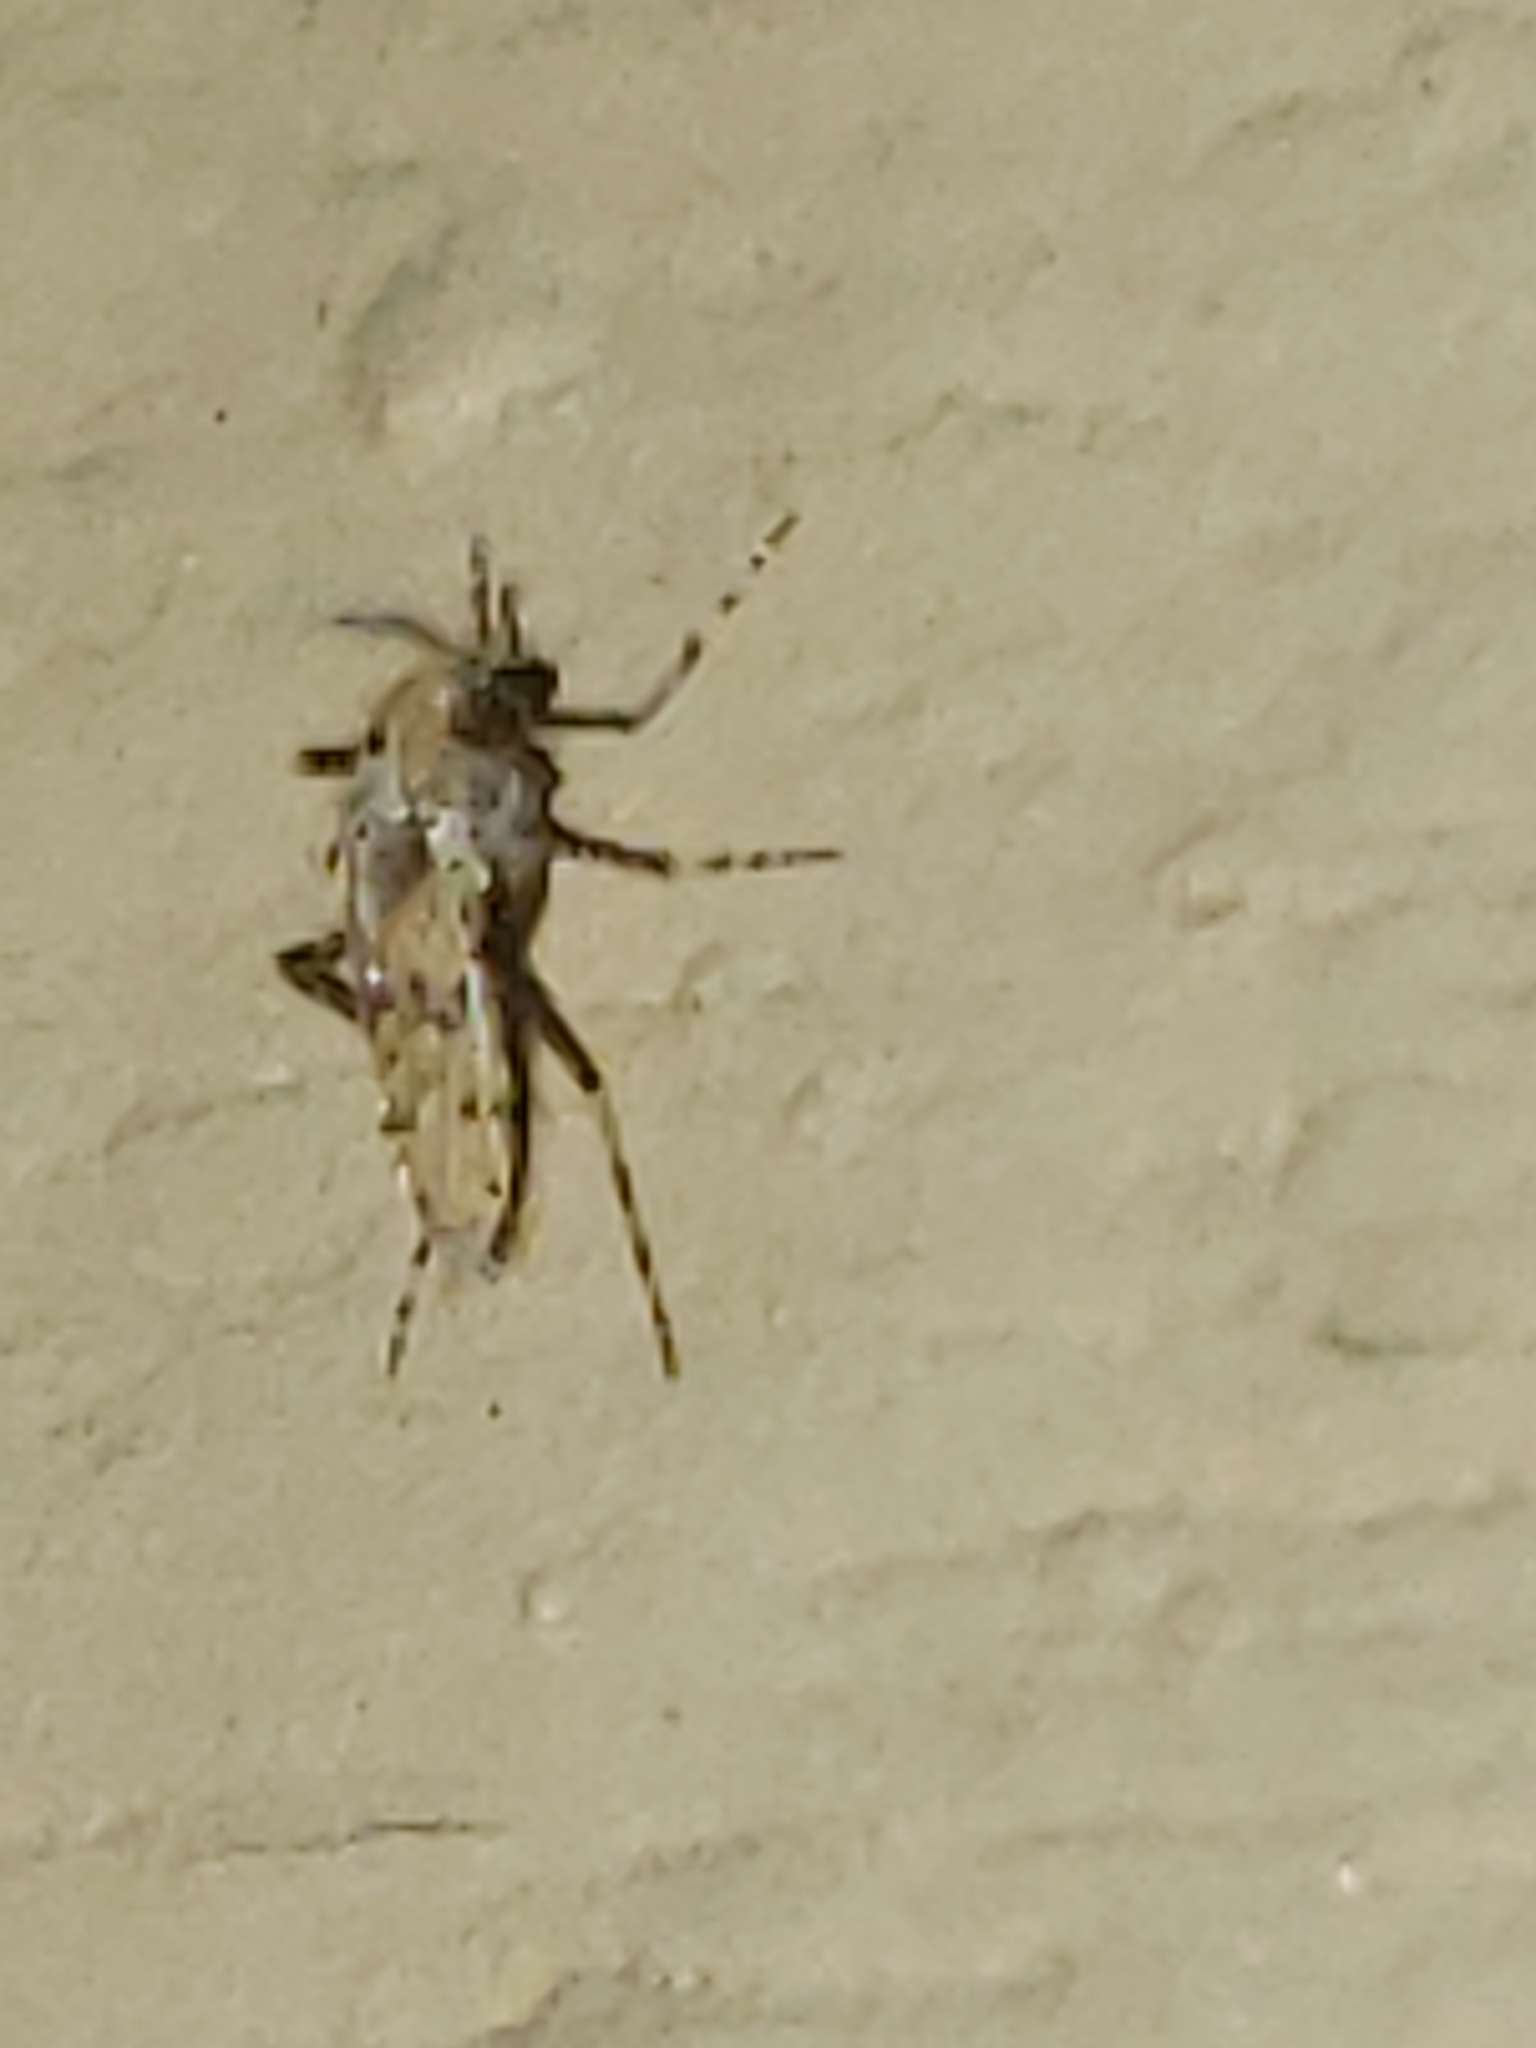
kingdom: Animalia
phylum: Arthropoda
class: Insecta
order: Diptera
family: Chaoboridae
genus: Chaoborus
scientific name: Chaoborus punctipennis
